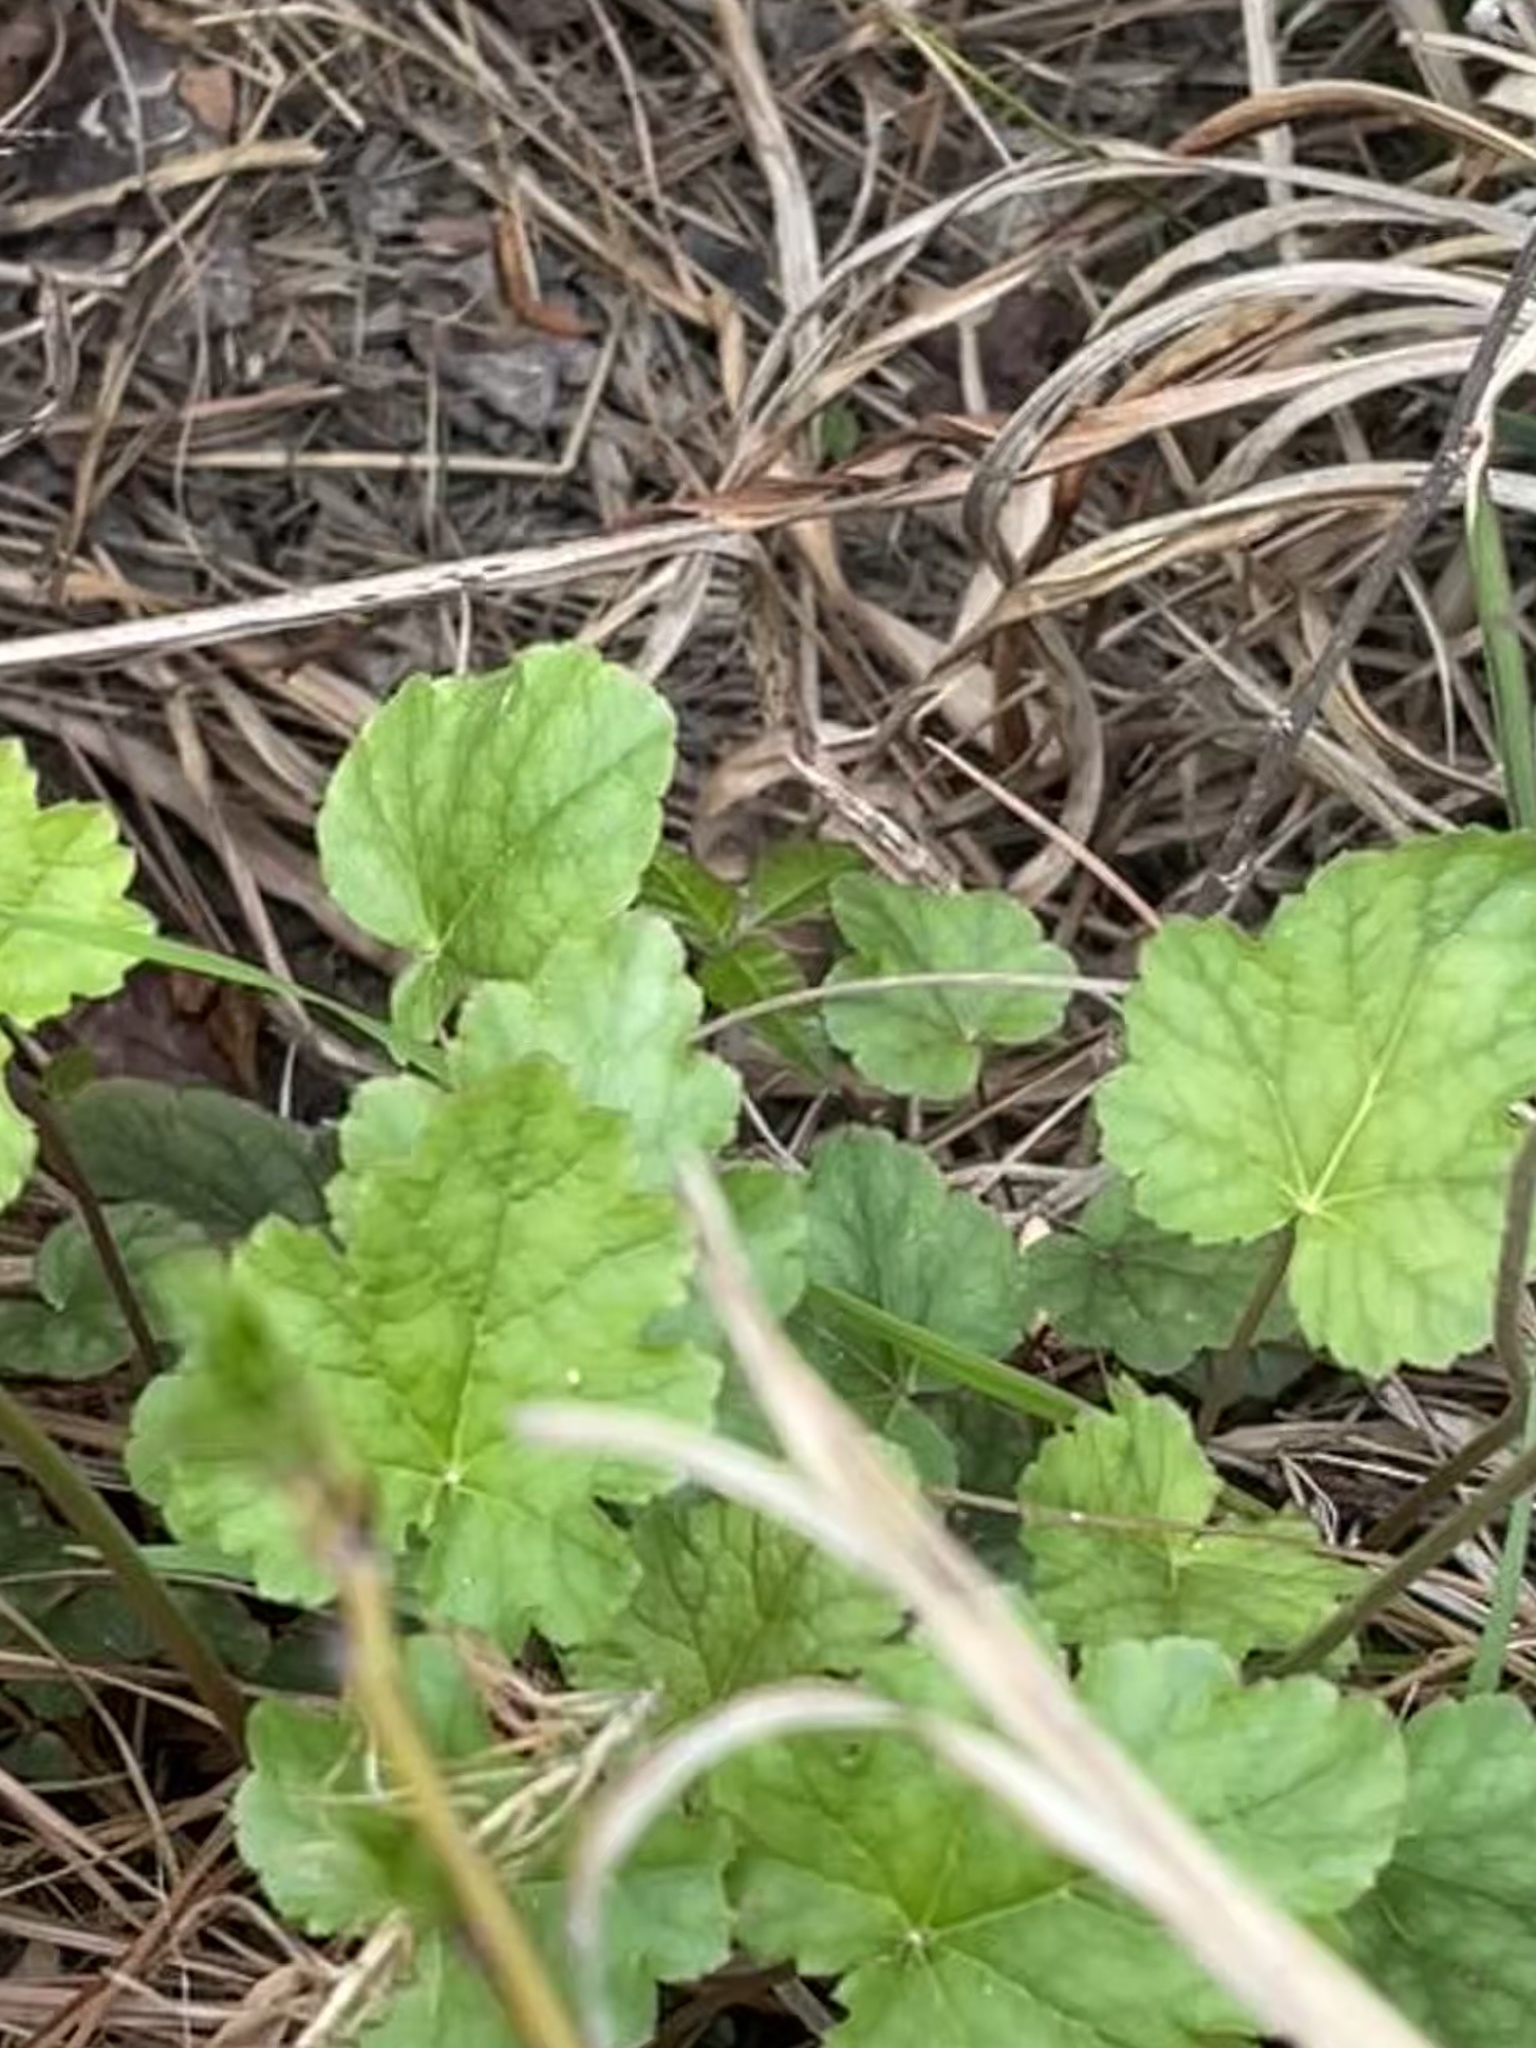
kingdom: Plantae
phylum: Tracheophyta
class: Magnoliopsida
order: Saxifragales
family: Saxifragaceae
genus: Heuchera
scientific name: Heuchera caroliniana
